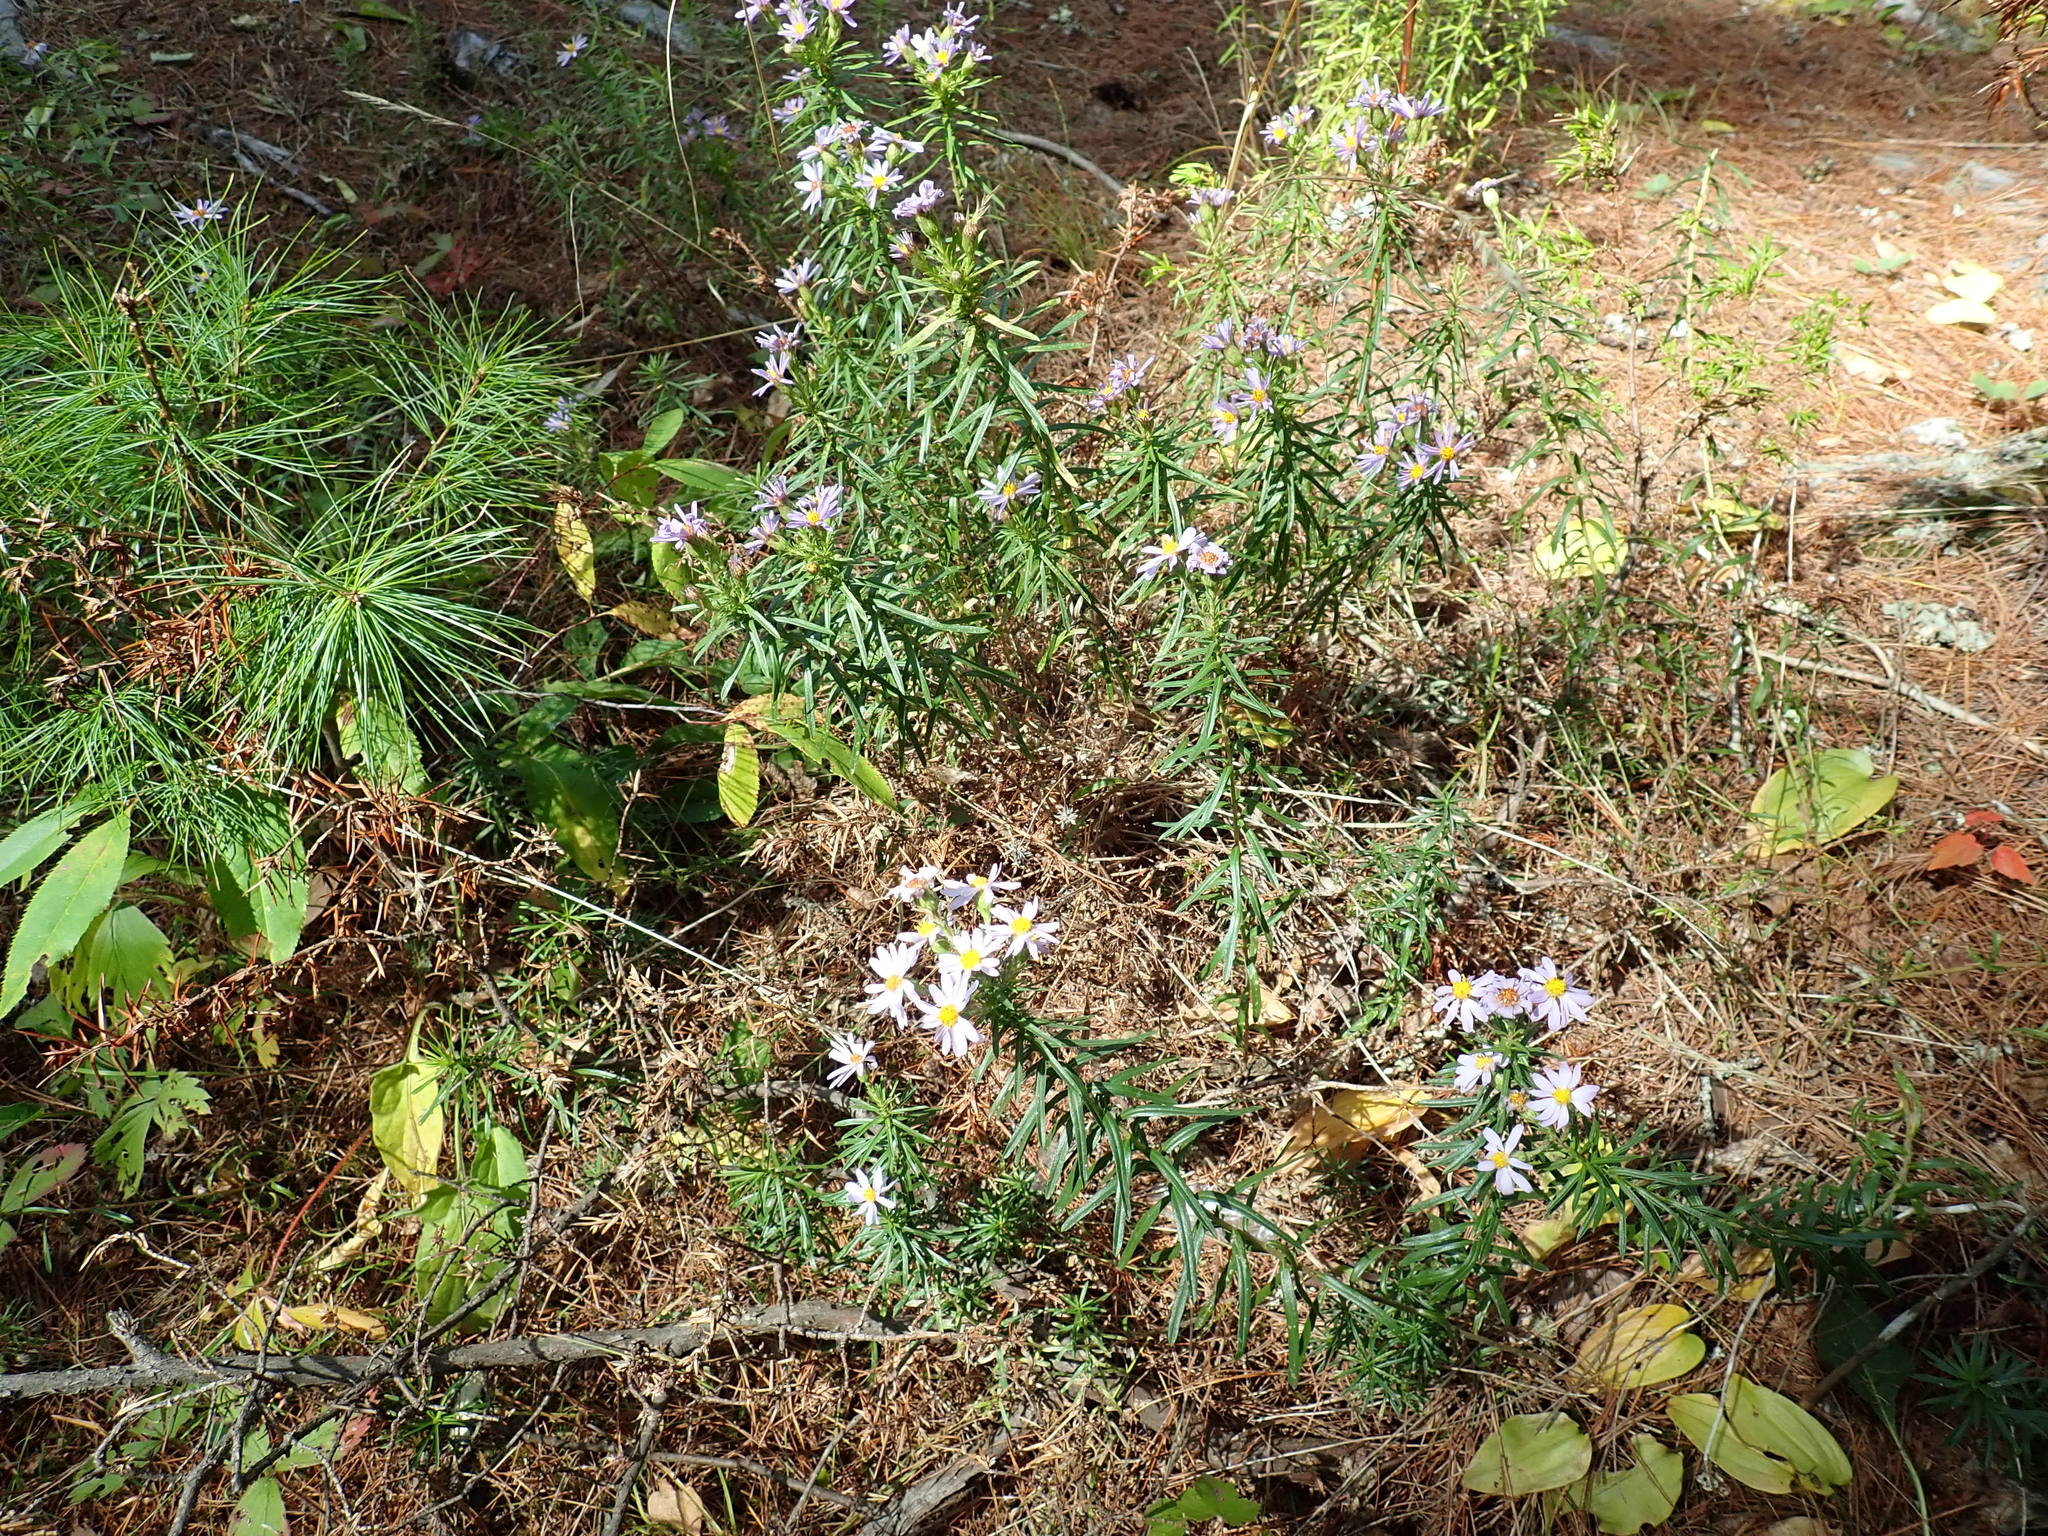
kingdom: Plantae
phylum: Tracheophyta
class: Magnoliopsida
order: Asterales
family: Asteraceae
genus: Ionactis
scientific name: Ionactis linariifolia
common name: Flax-leaf aster
